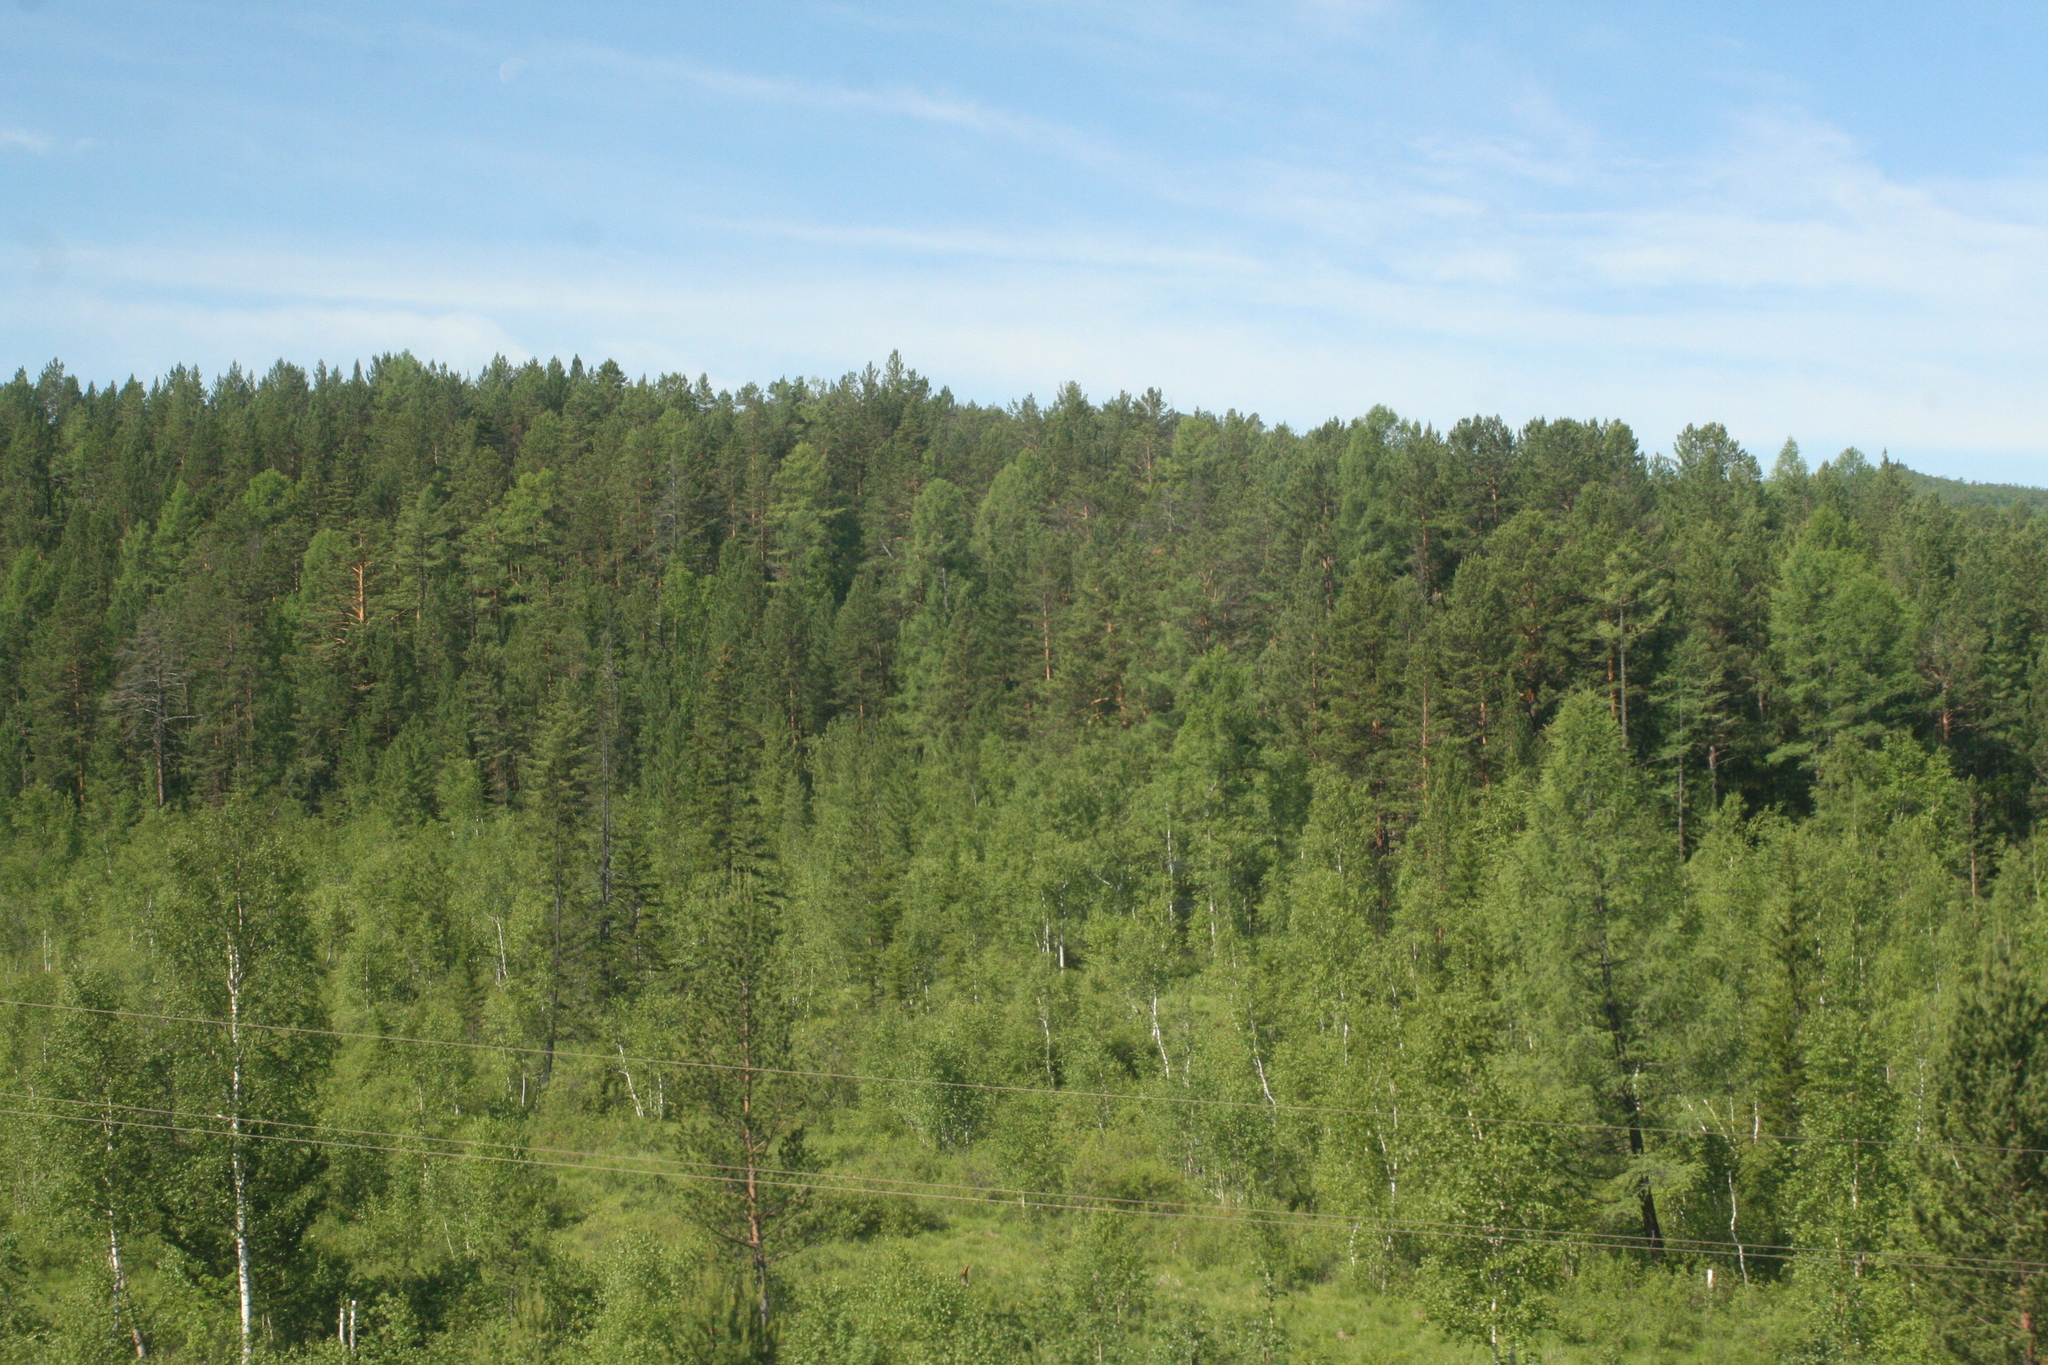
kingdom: Plantae
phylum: Tracheophyta
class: Pinopsida
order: Pinales
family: Pinaceae
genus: Pinus
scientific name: Pinus sylvestris
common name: Scots pine
